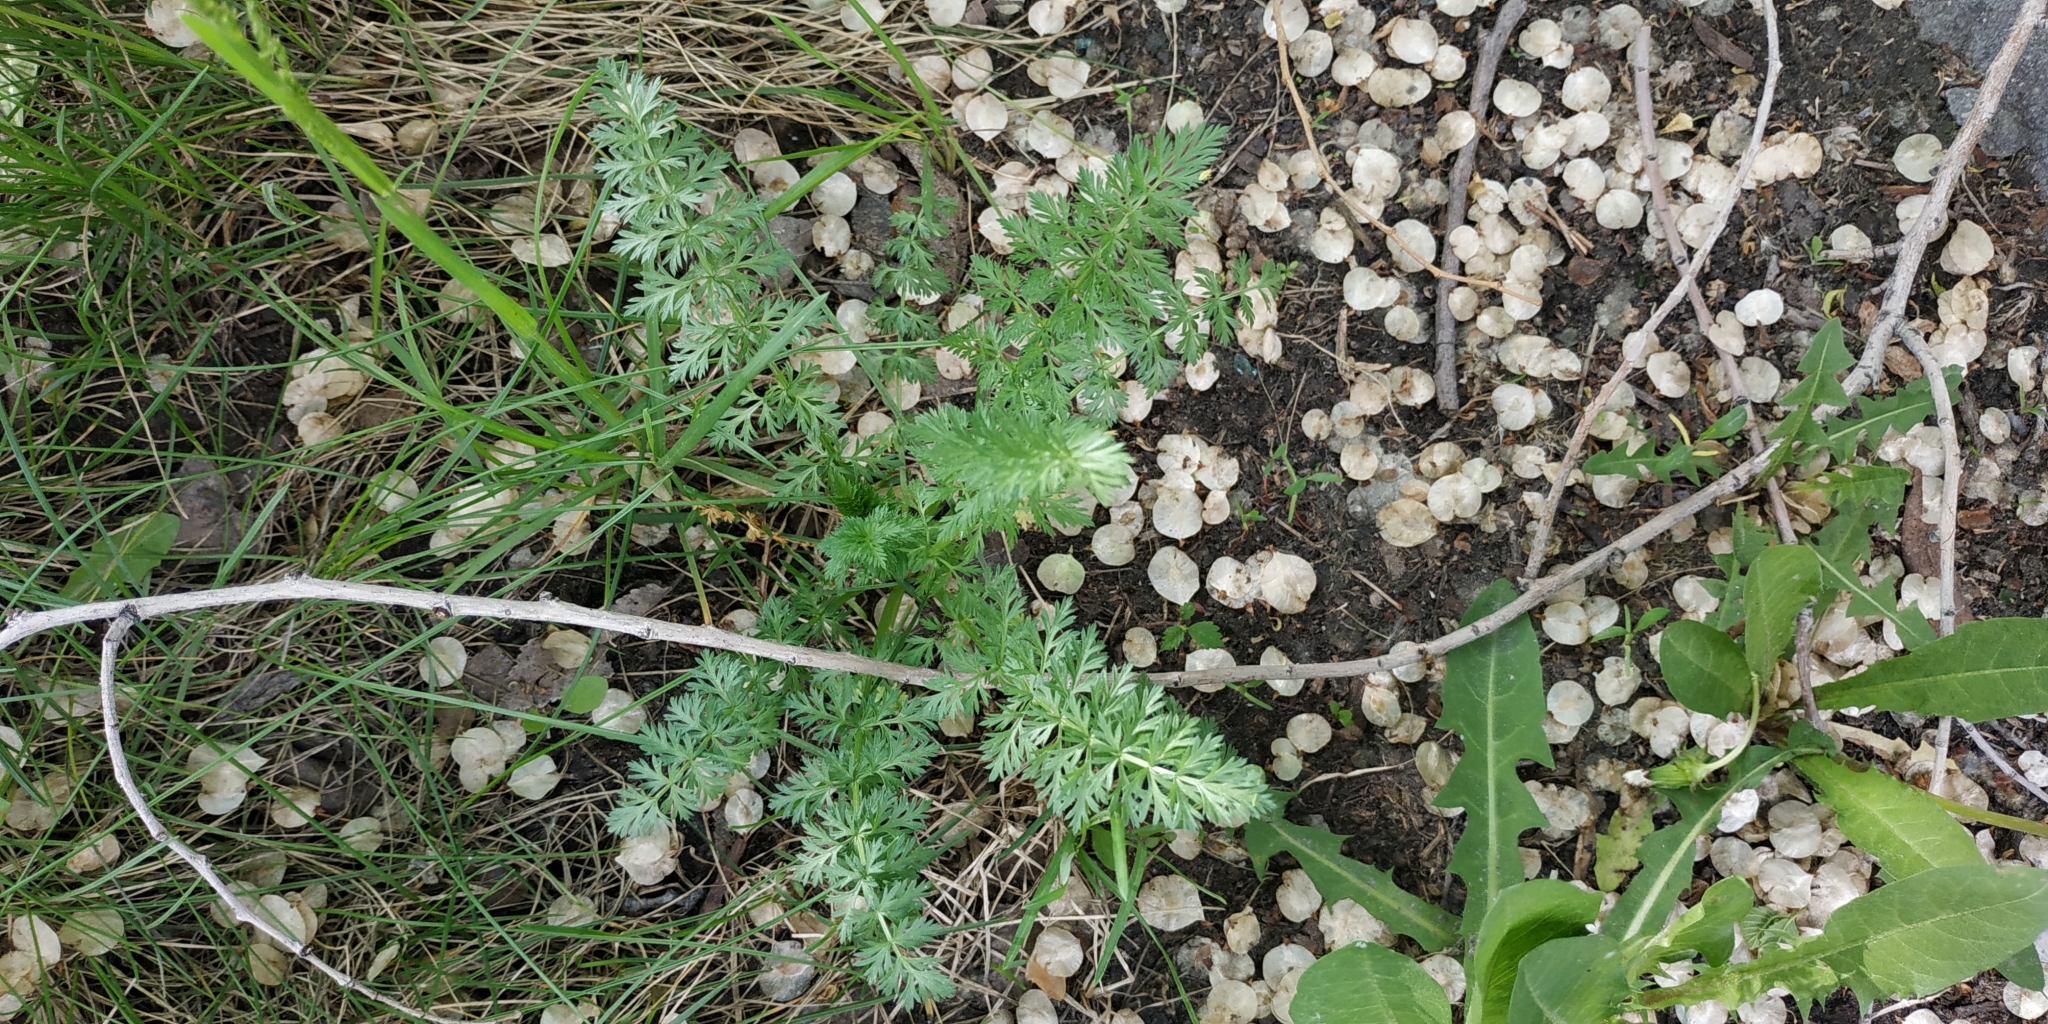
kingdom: Plantae
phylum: Tracheophyta
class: Magnoliopsida
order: Apiales
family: Apiaceae
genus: Carum
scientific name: Carum carvi
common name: Caraway
